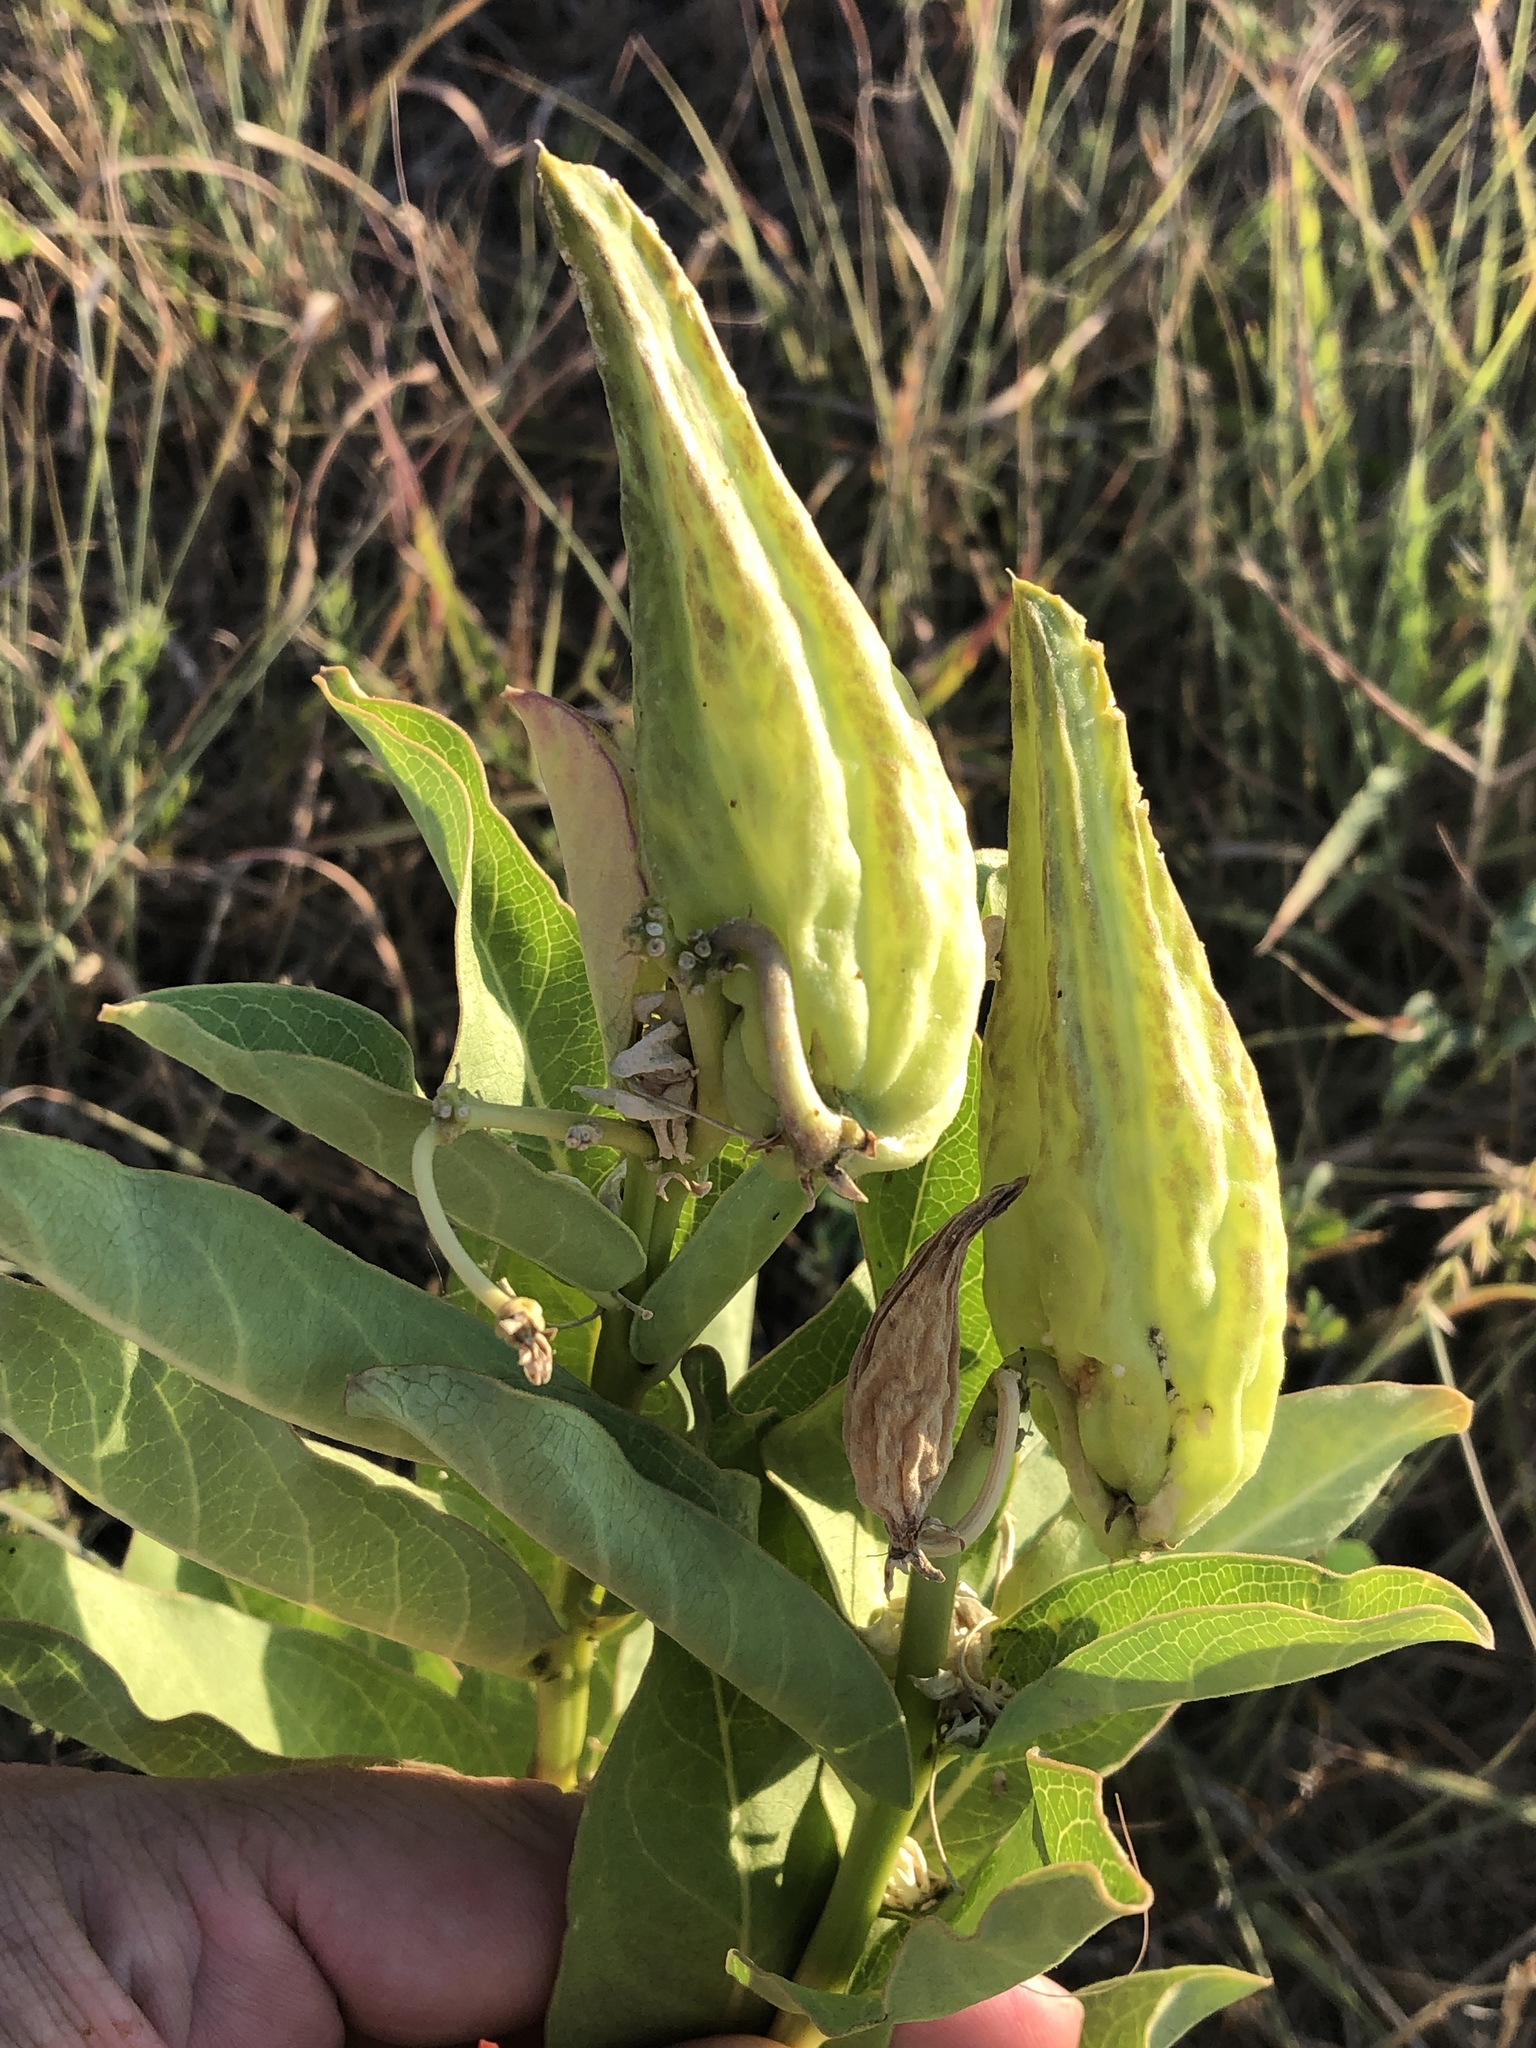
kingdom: Plantae
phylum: Tracheophyta
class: Magnoliopsida
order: Gentianales
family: Apocynaceae
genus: Asclepias
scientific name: Asclepias viridis
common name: Antelope-horns
